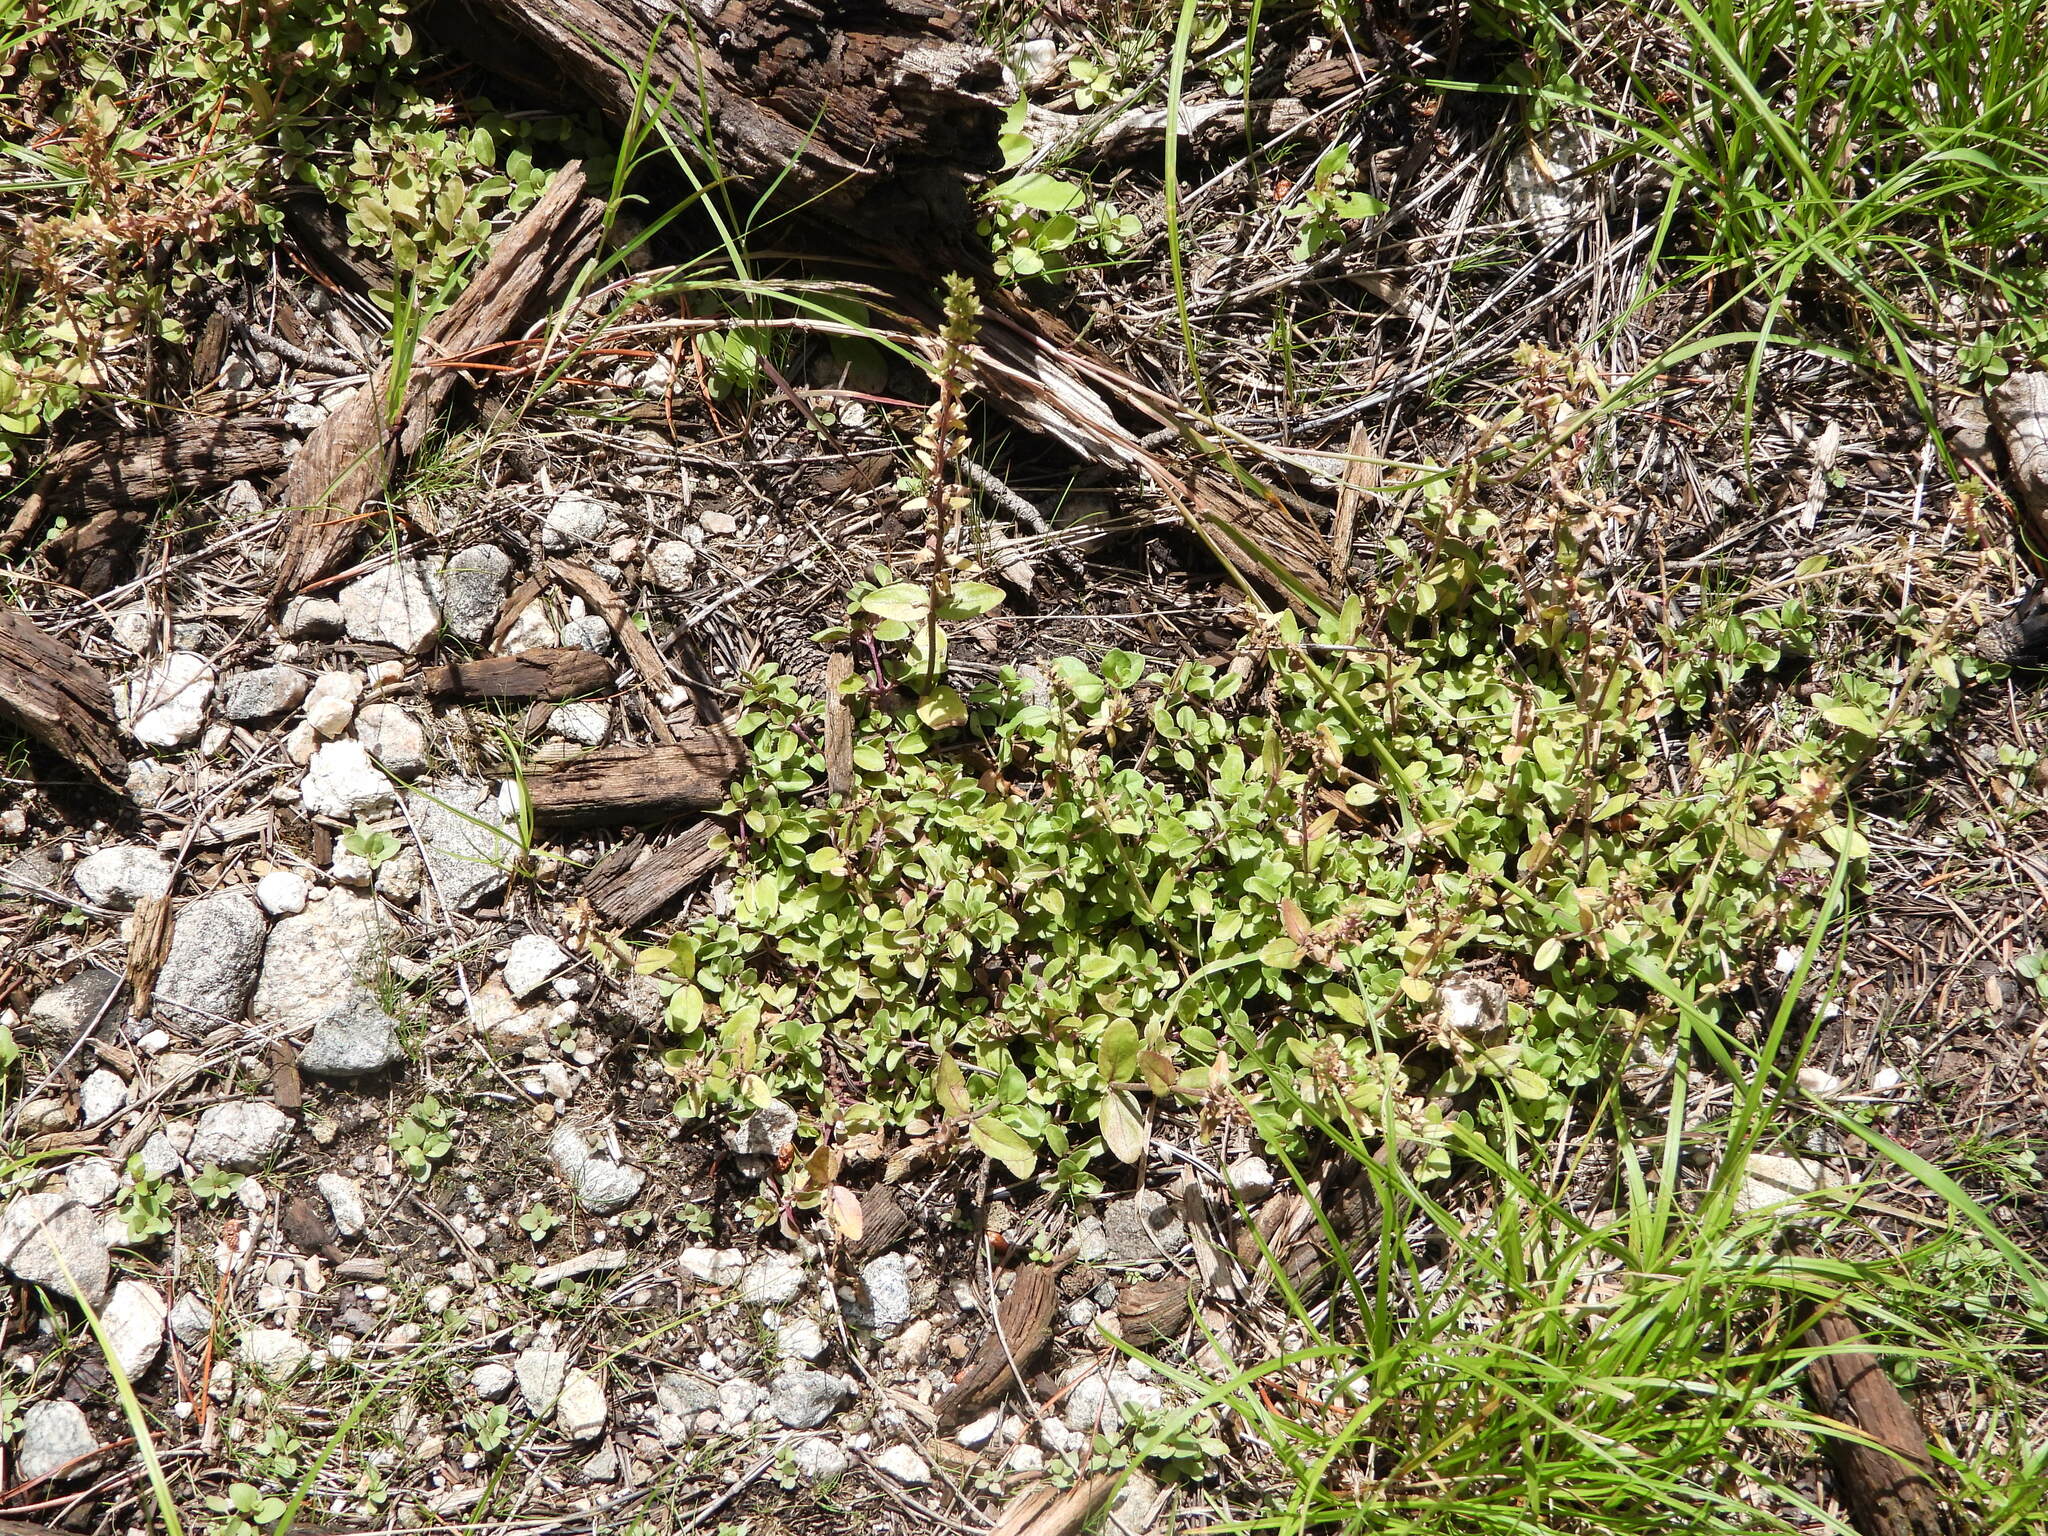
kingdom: Plantae
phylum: Tracheophyta
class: Magnoliopsida
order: Lamiales
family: Plantaginaceae
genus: Veronica
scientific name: Veronica serpyllifolia
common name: Thyme-leaved speedwell
